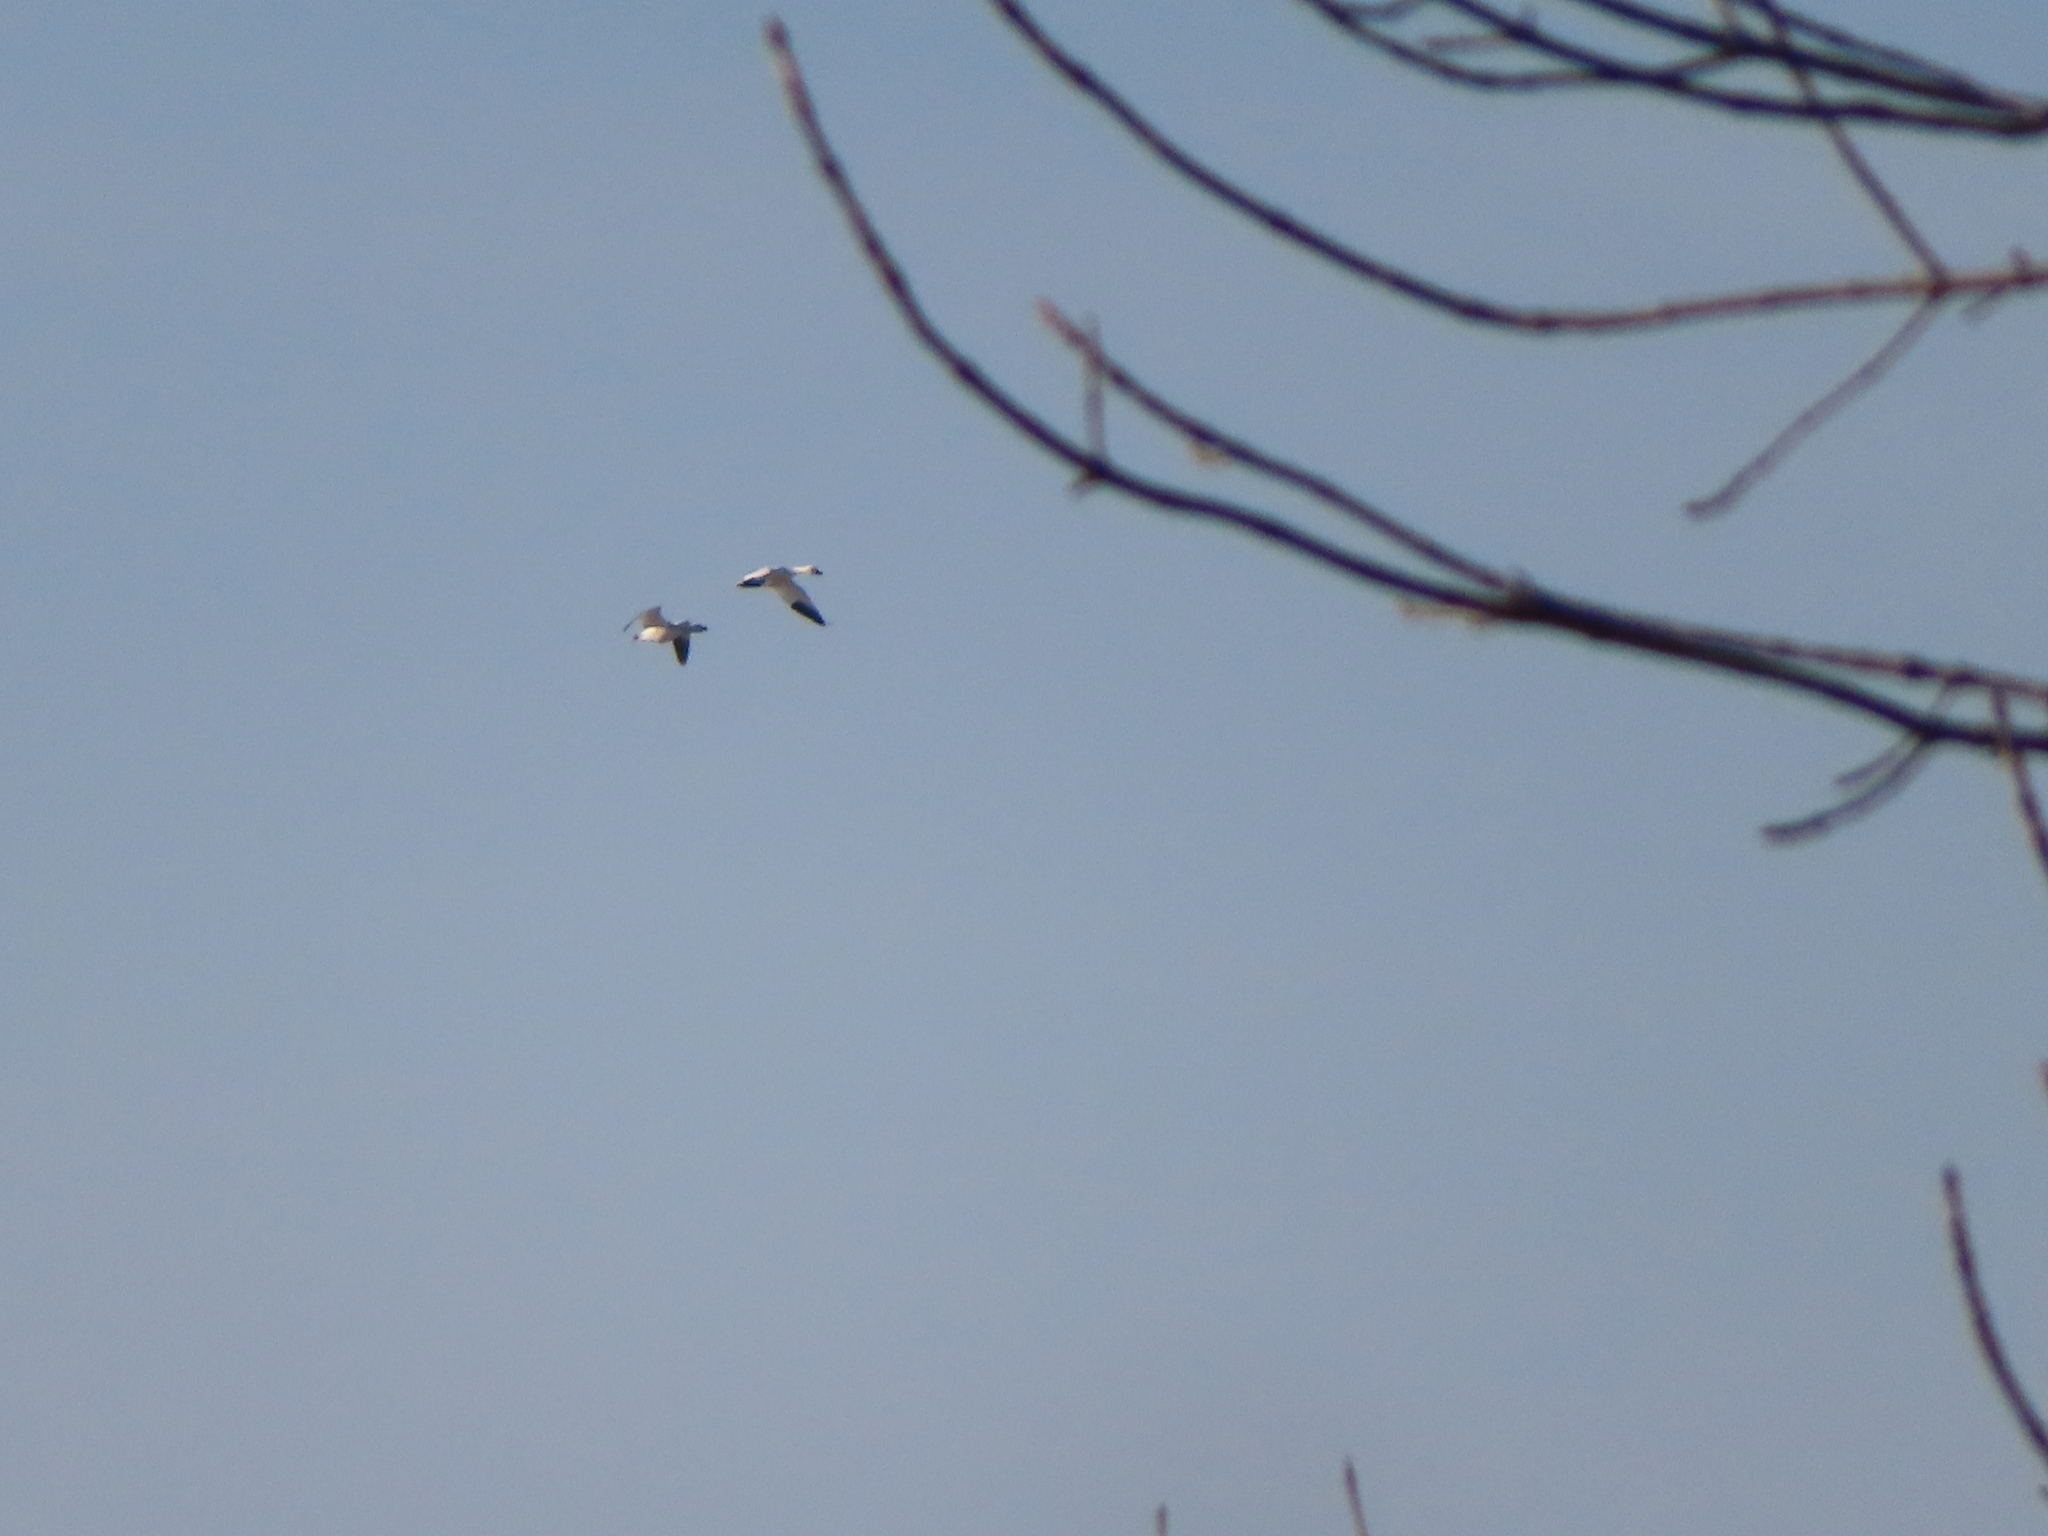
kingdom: Animalia
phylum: Chordata
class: Aves
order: Anseriformes
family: Anatidae
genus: Anser
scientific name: Anser caerulescens
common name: Snow goose
